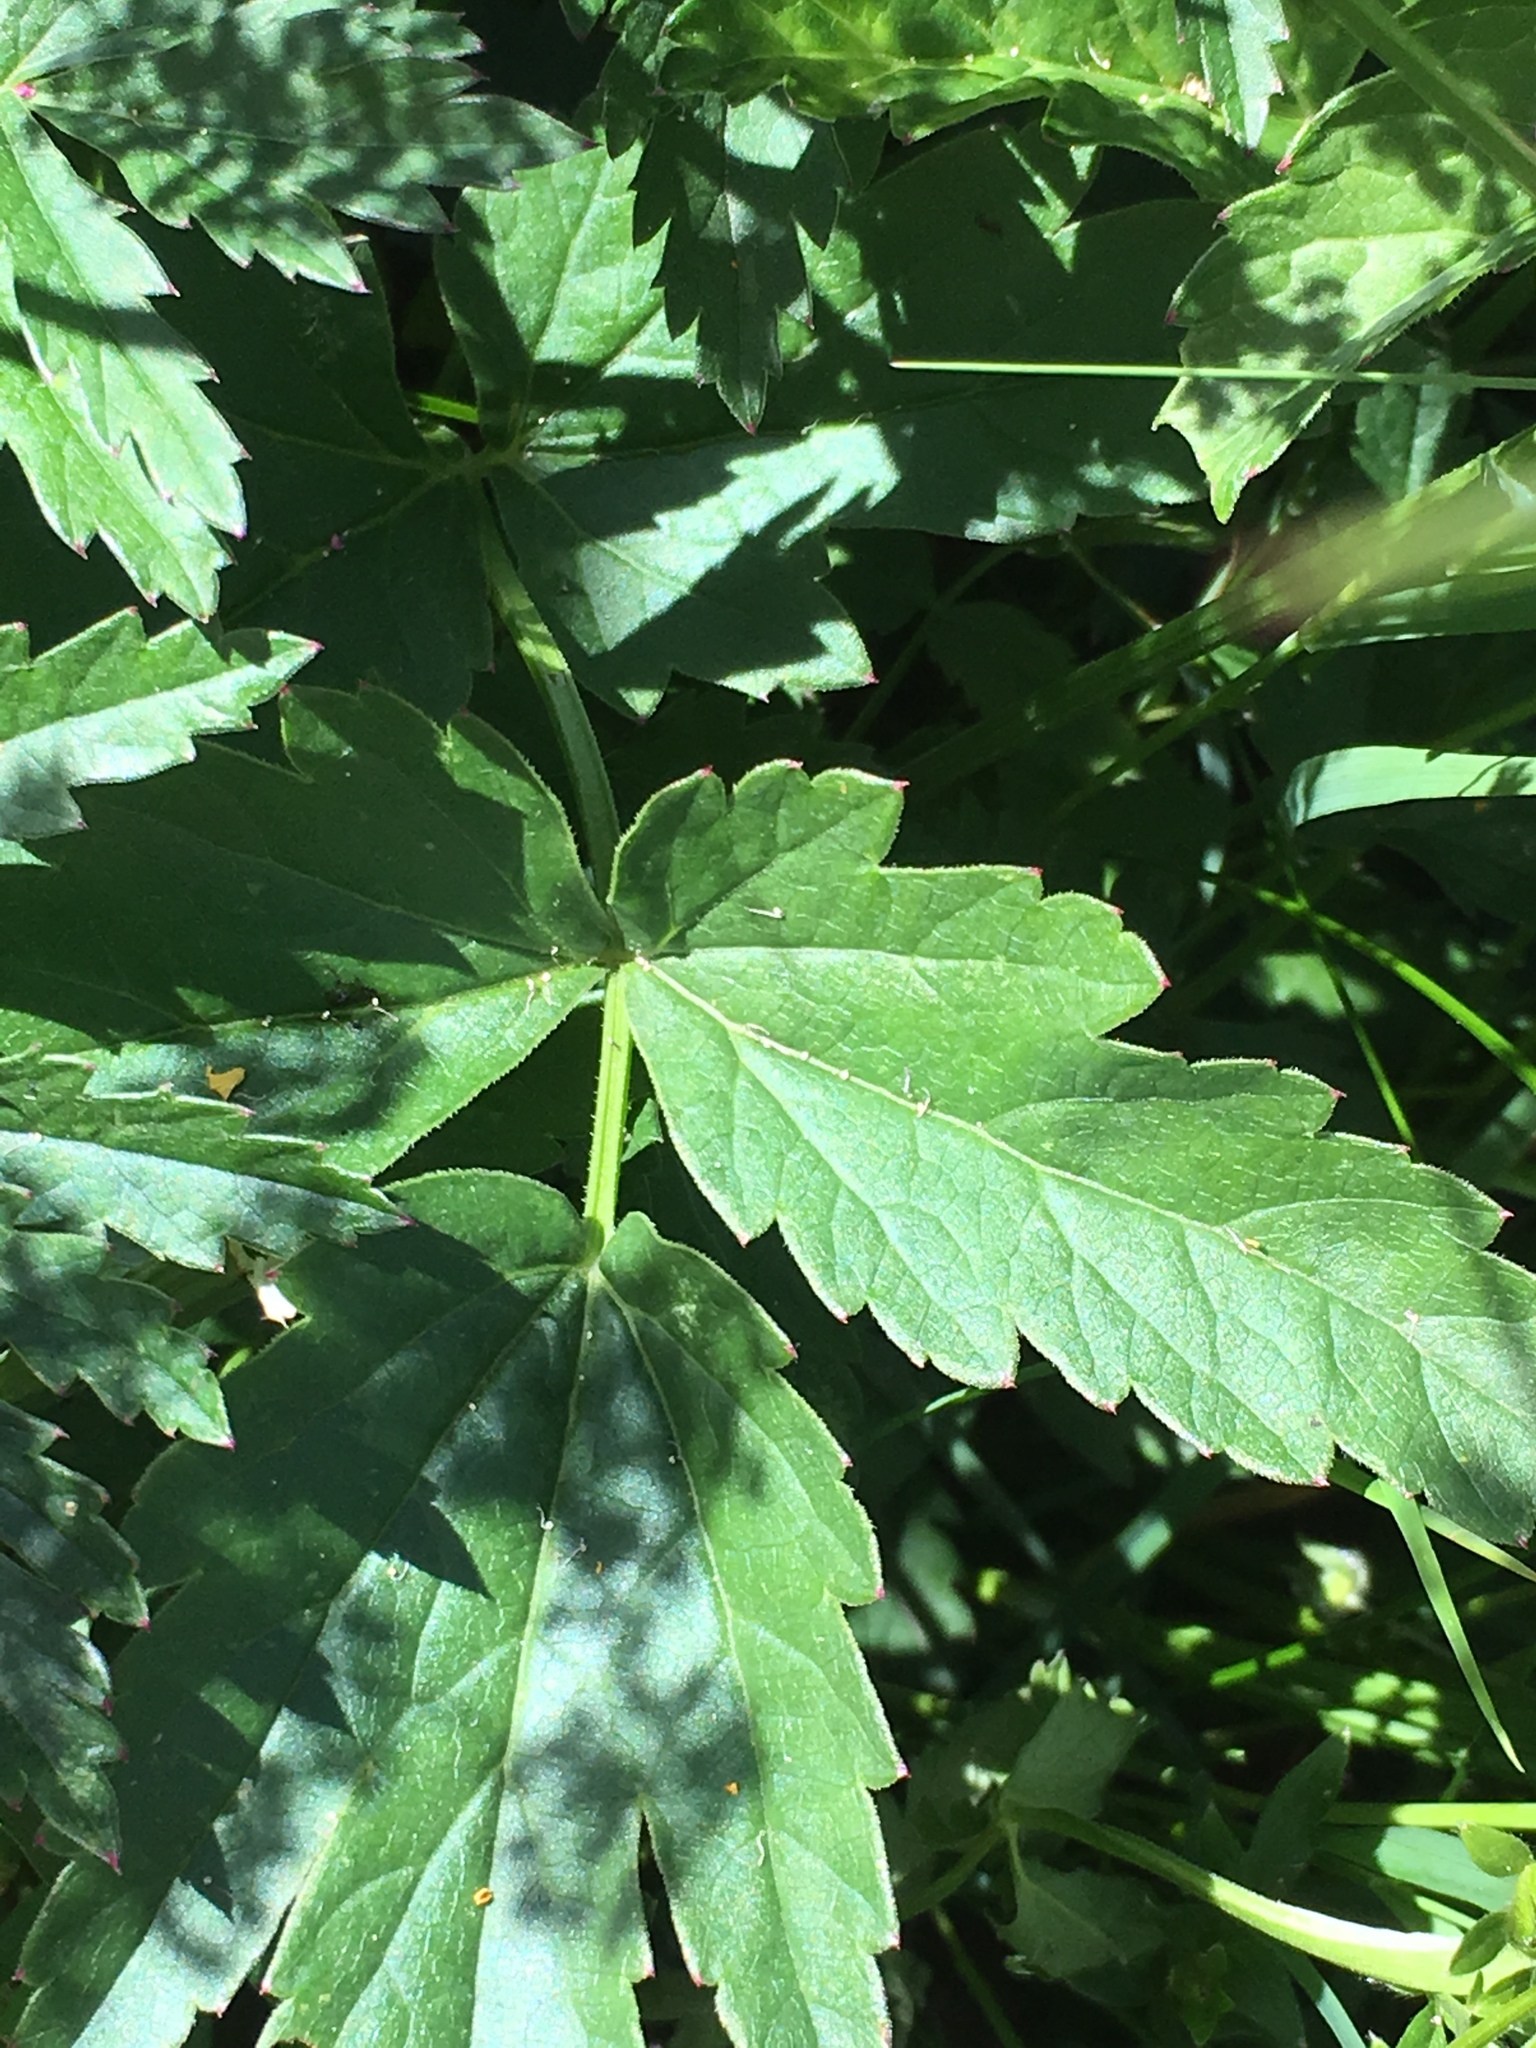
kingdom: Plantae
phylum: Tracheophyta
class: Magnoliopsida
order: Apiales
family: Apiaceae
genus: Pimpinella
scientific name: Pimpinella major
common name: Greater burnet-saxifrage
